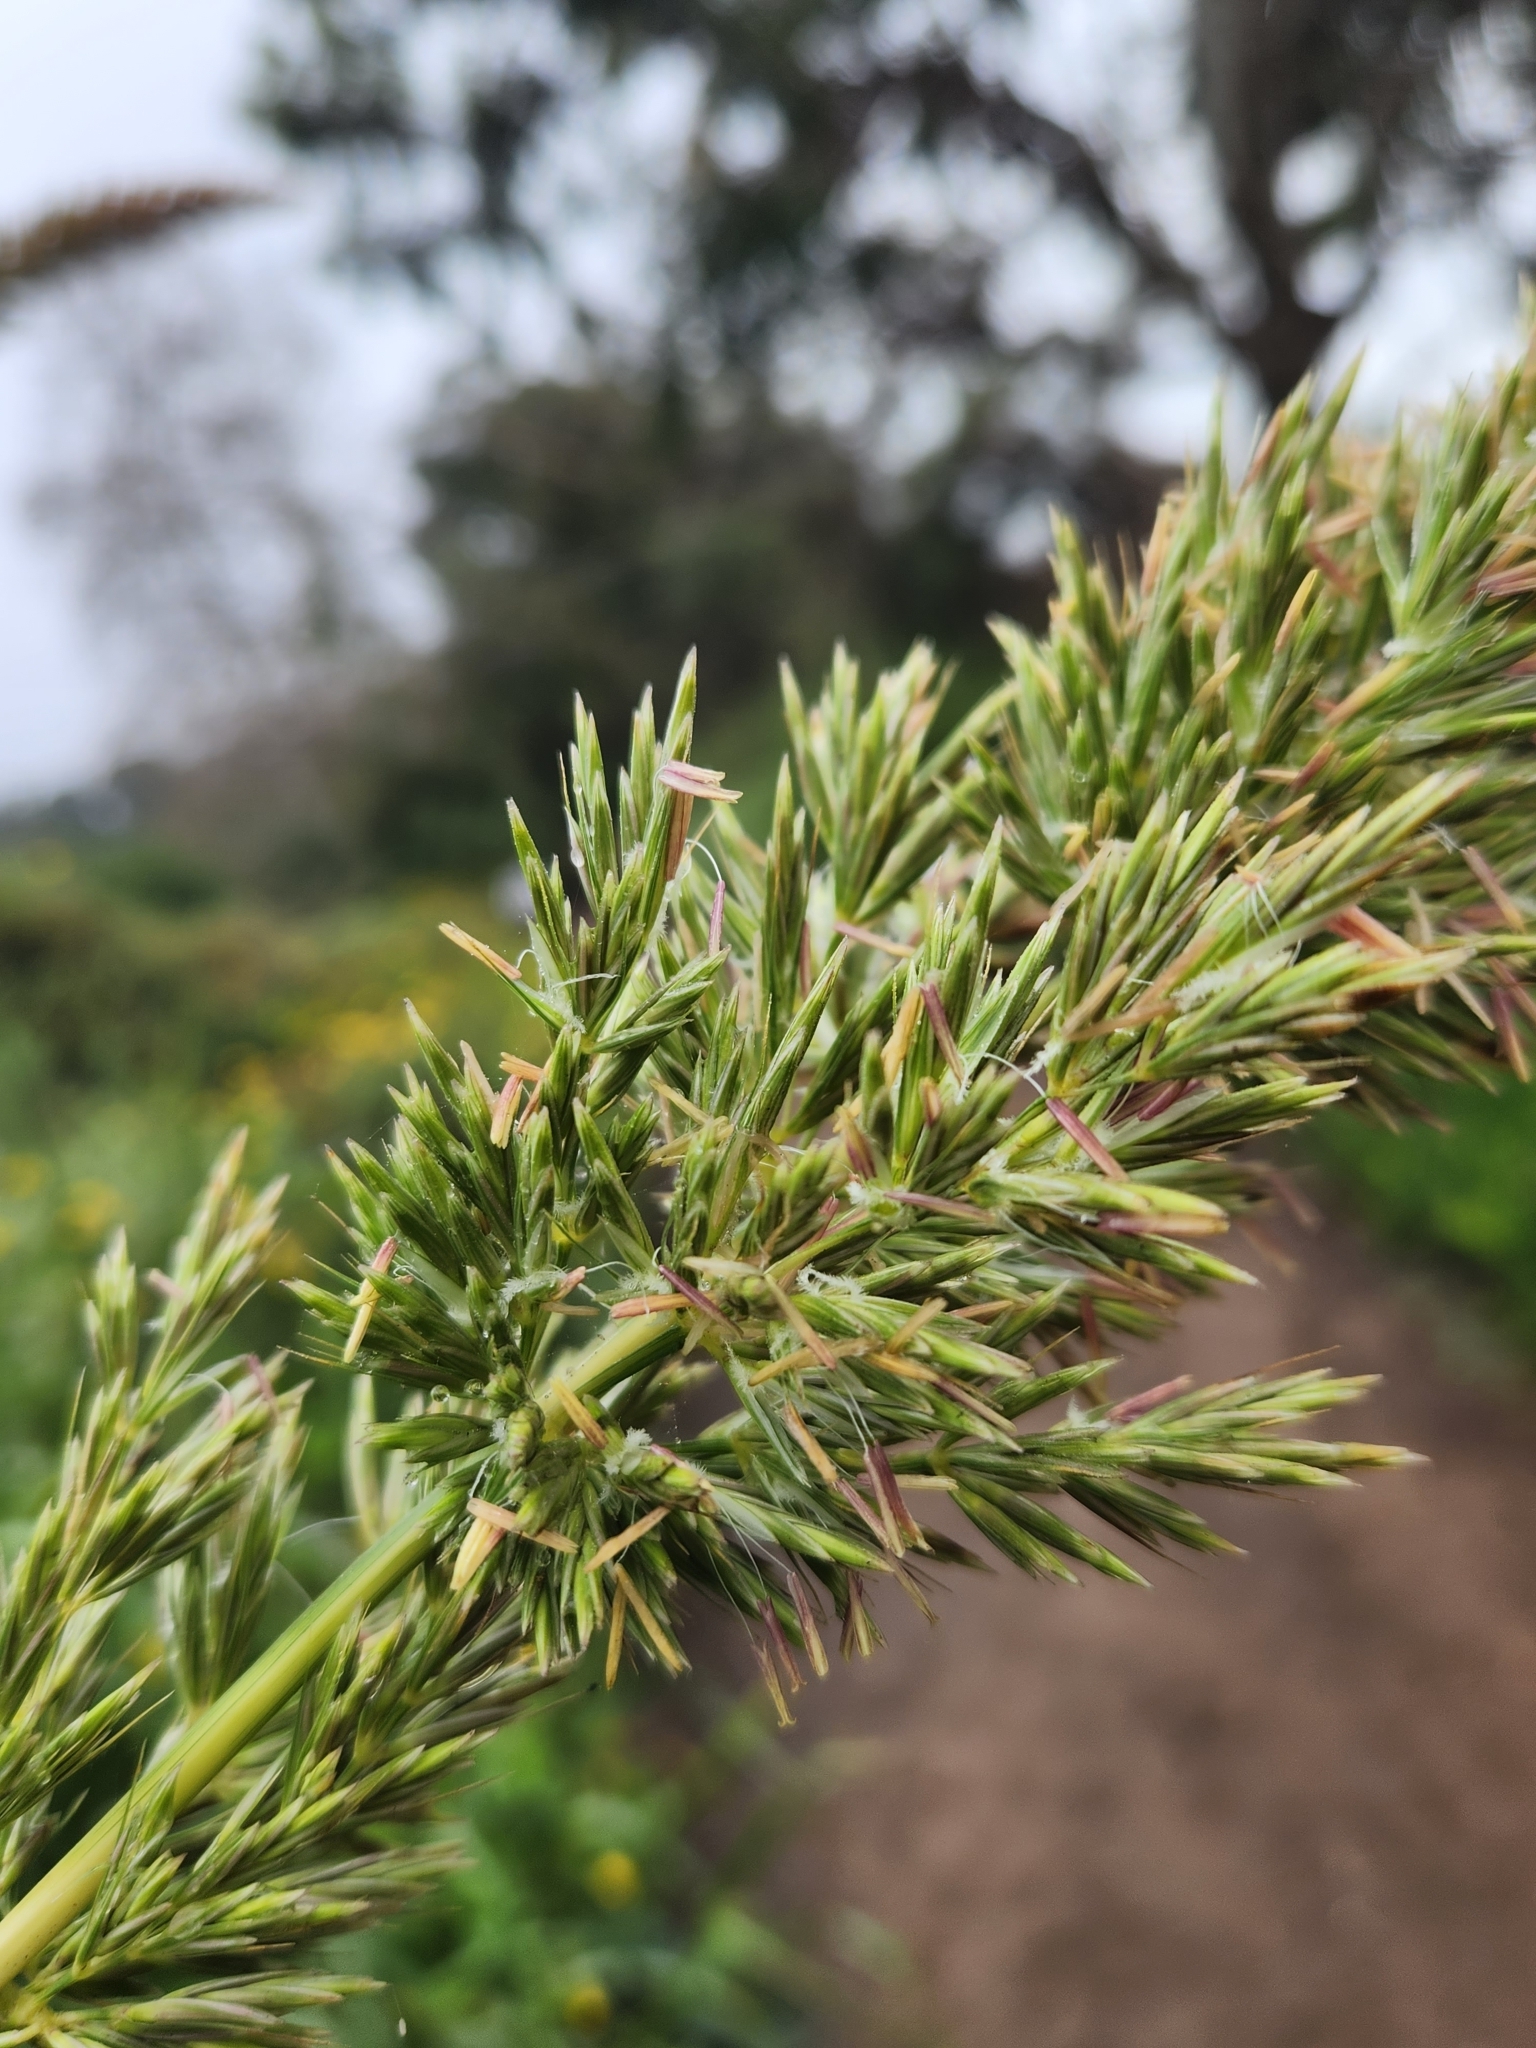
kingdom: Plantae
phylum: Tracheophyta
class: Liliopsida
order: Poales
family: Poaceae
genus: Leymus
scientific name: Leymus condensatus
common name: Giant wild rye
